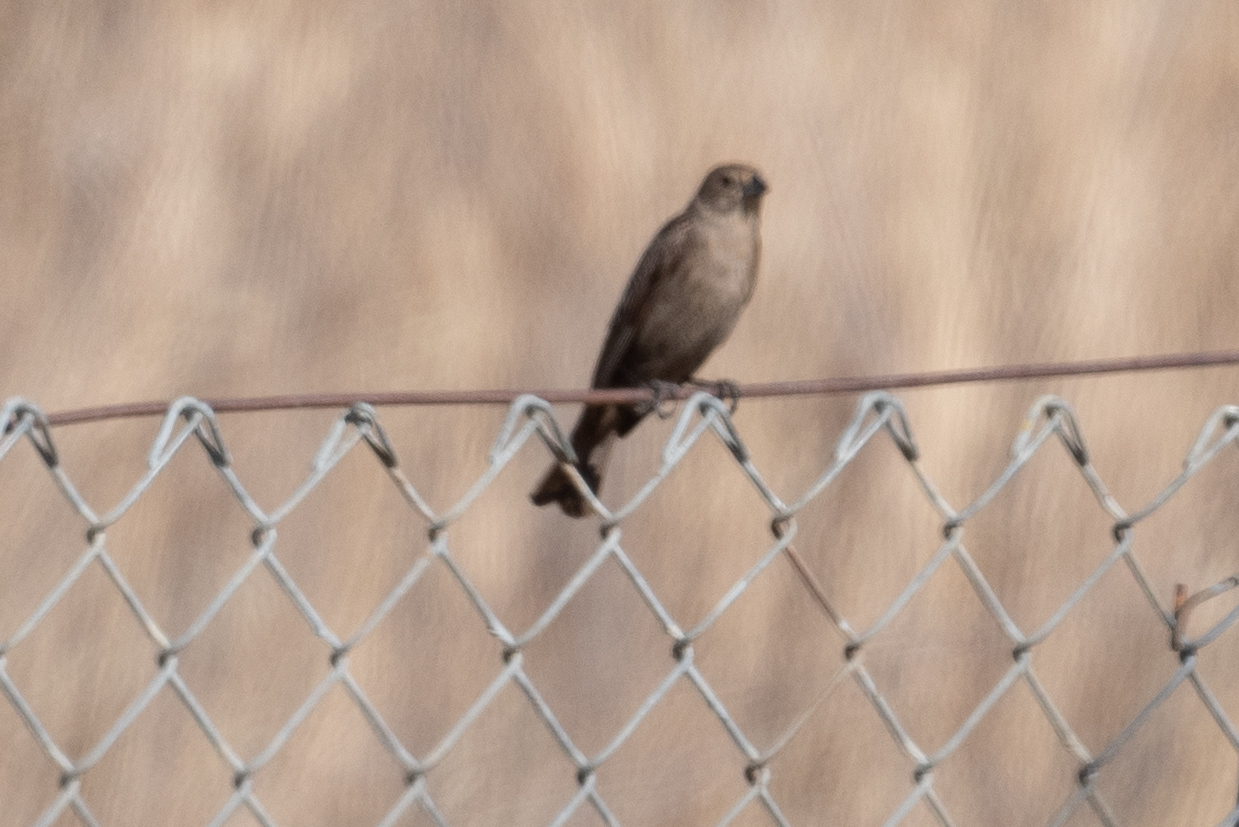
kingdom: Animalia
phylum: Chordata
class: Aves
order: Passeriformes
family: Icteridae
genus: Molothrus
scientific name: Molothrus ater
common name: Brown-headed cowbird
